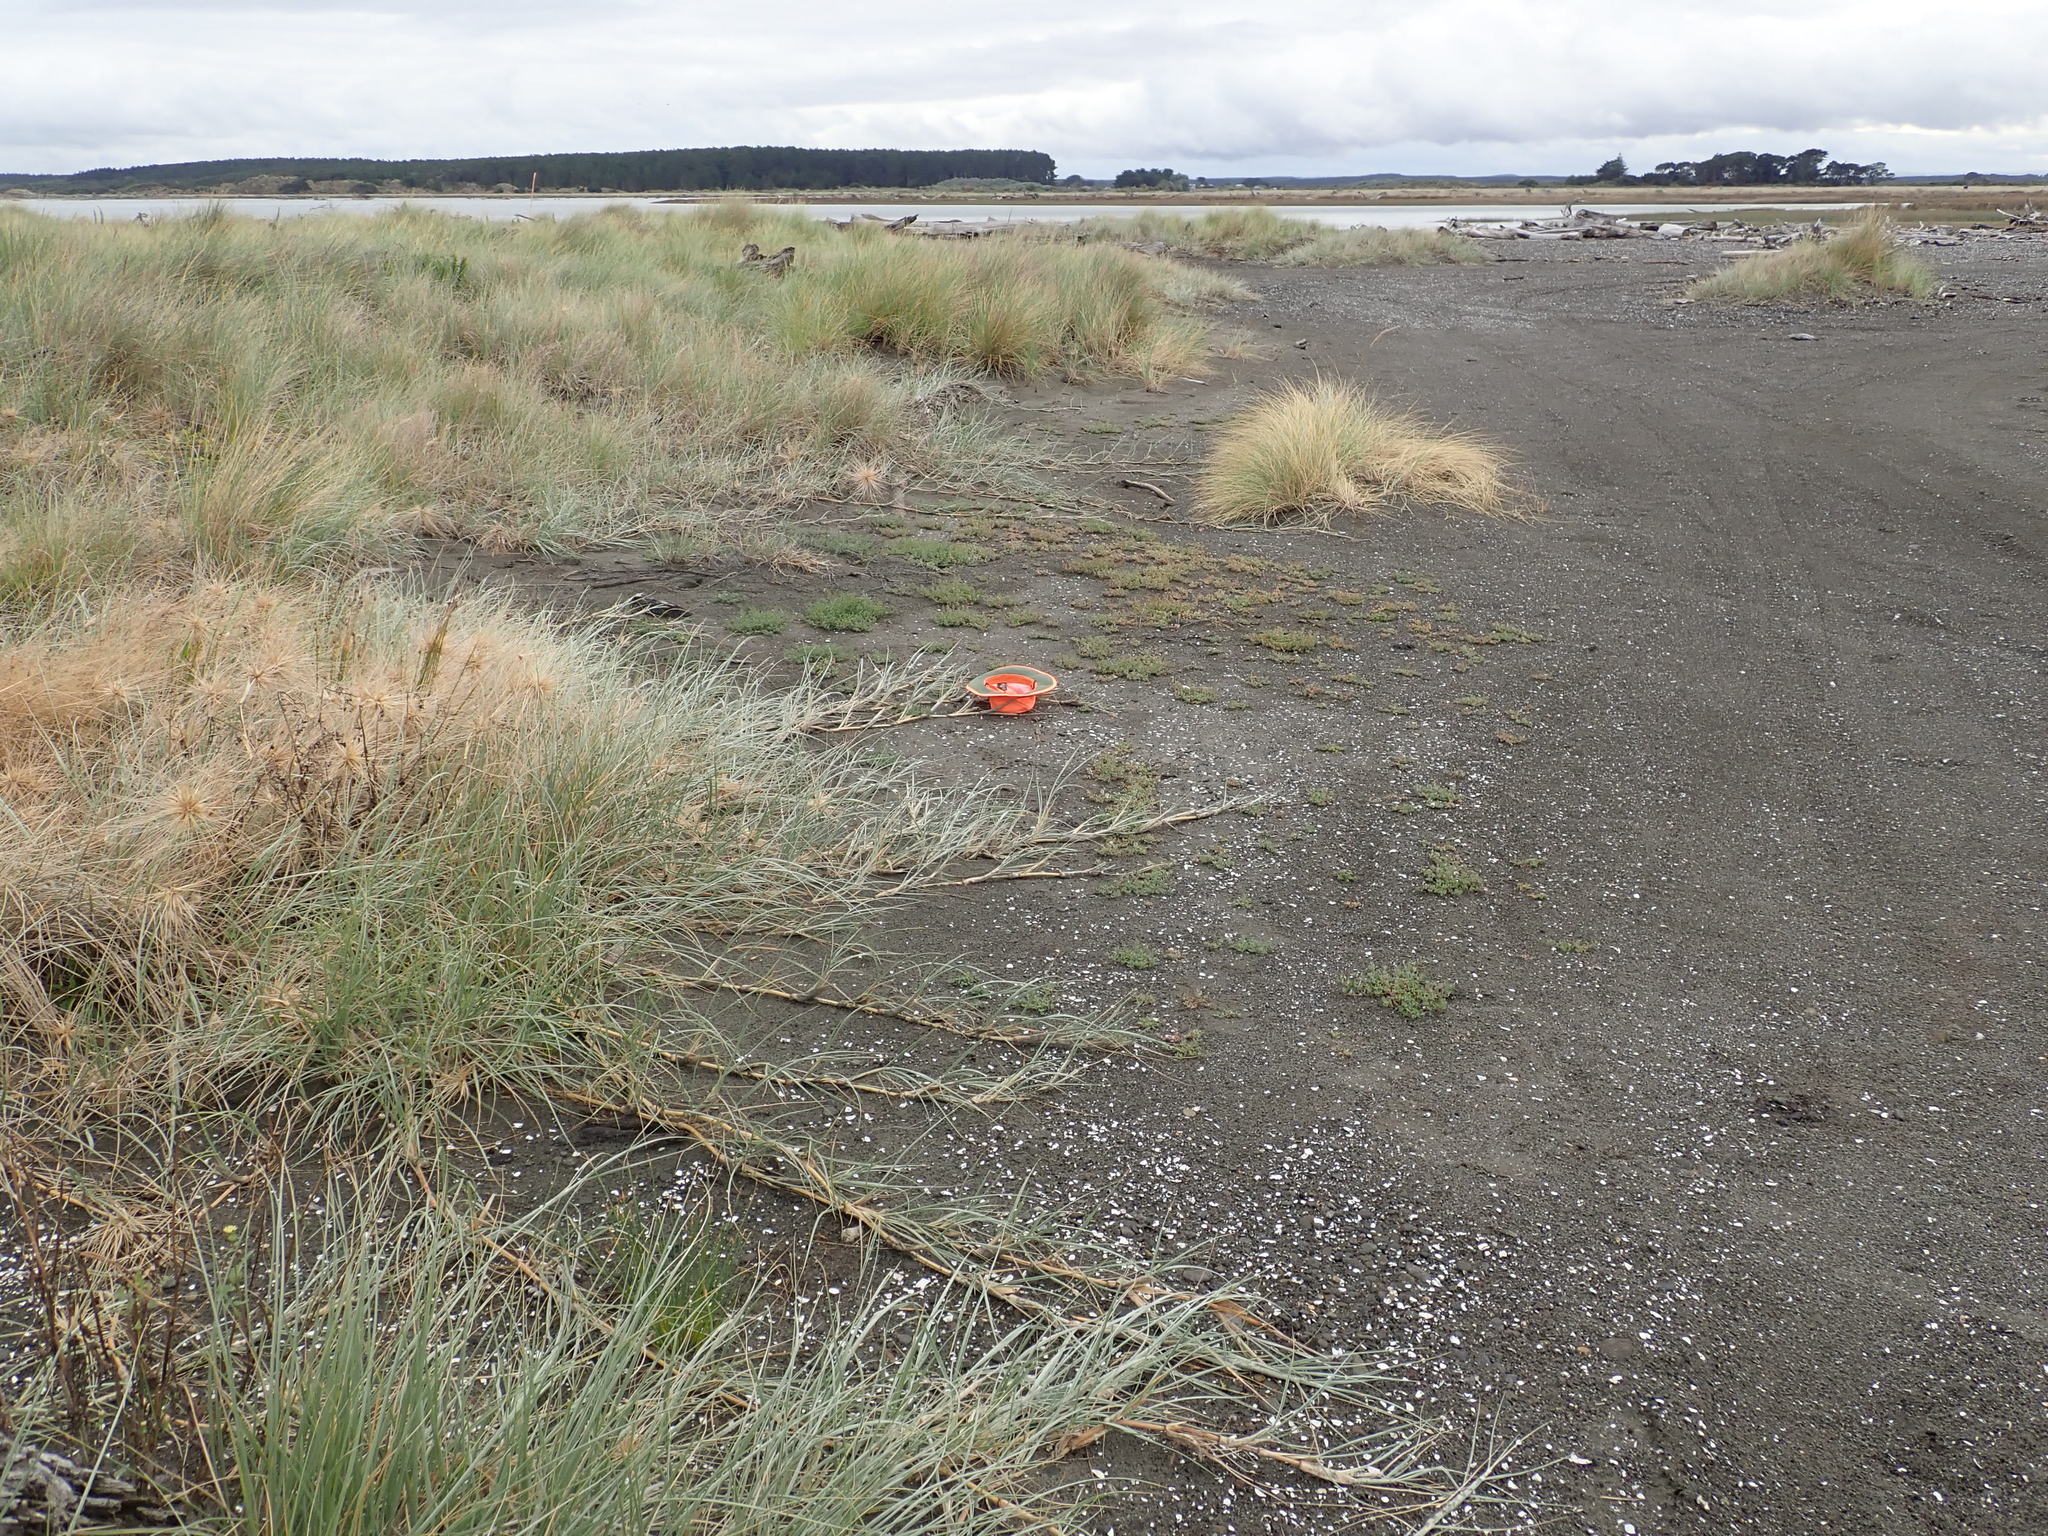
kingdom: Plantae
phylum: Tracheophyta
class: Magnoliopsida
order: Caryophyllales
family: Amaranthaceae
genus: Oxybasis
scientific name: Oxybasis ambigua
